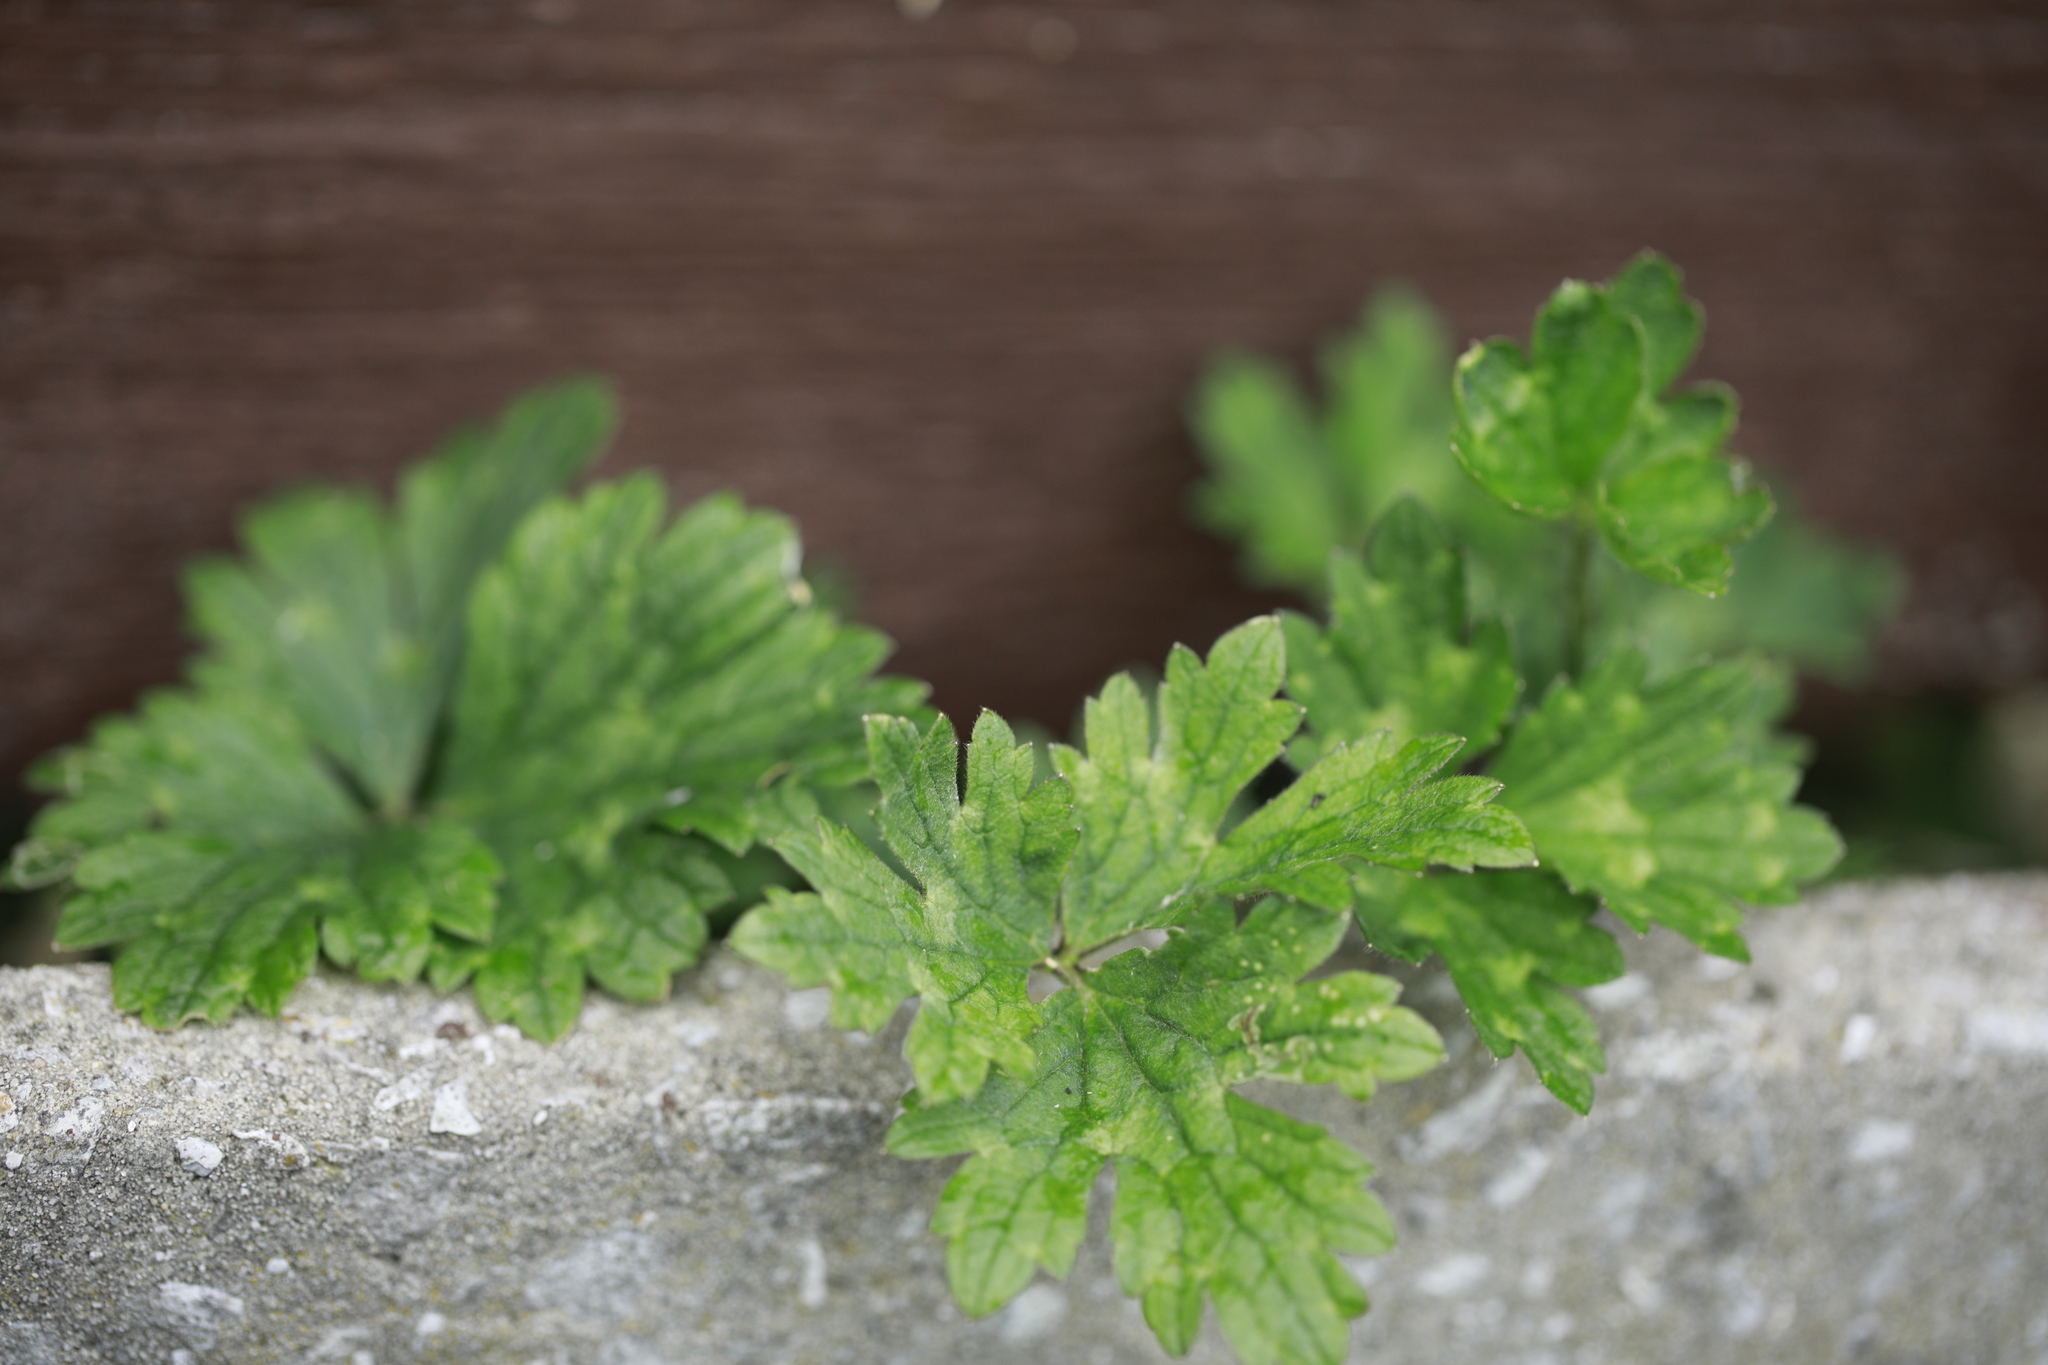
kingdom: Plantae
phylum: Tracheophyta
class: Magnoliopsida
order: Ranunculales
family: Ranunculaceae
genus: Ranunculus
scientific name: Ranunculus repens
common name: Creeping buttercup
